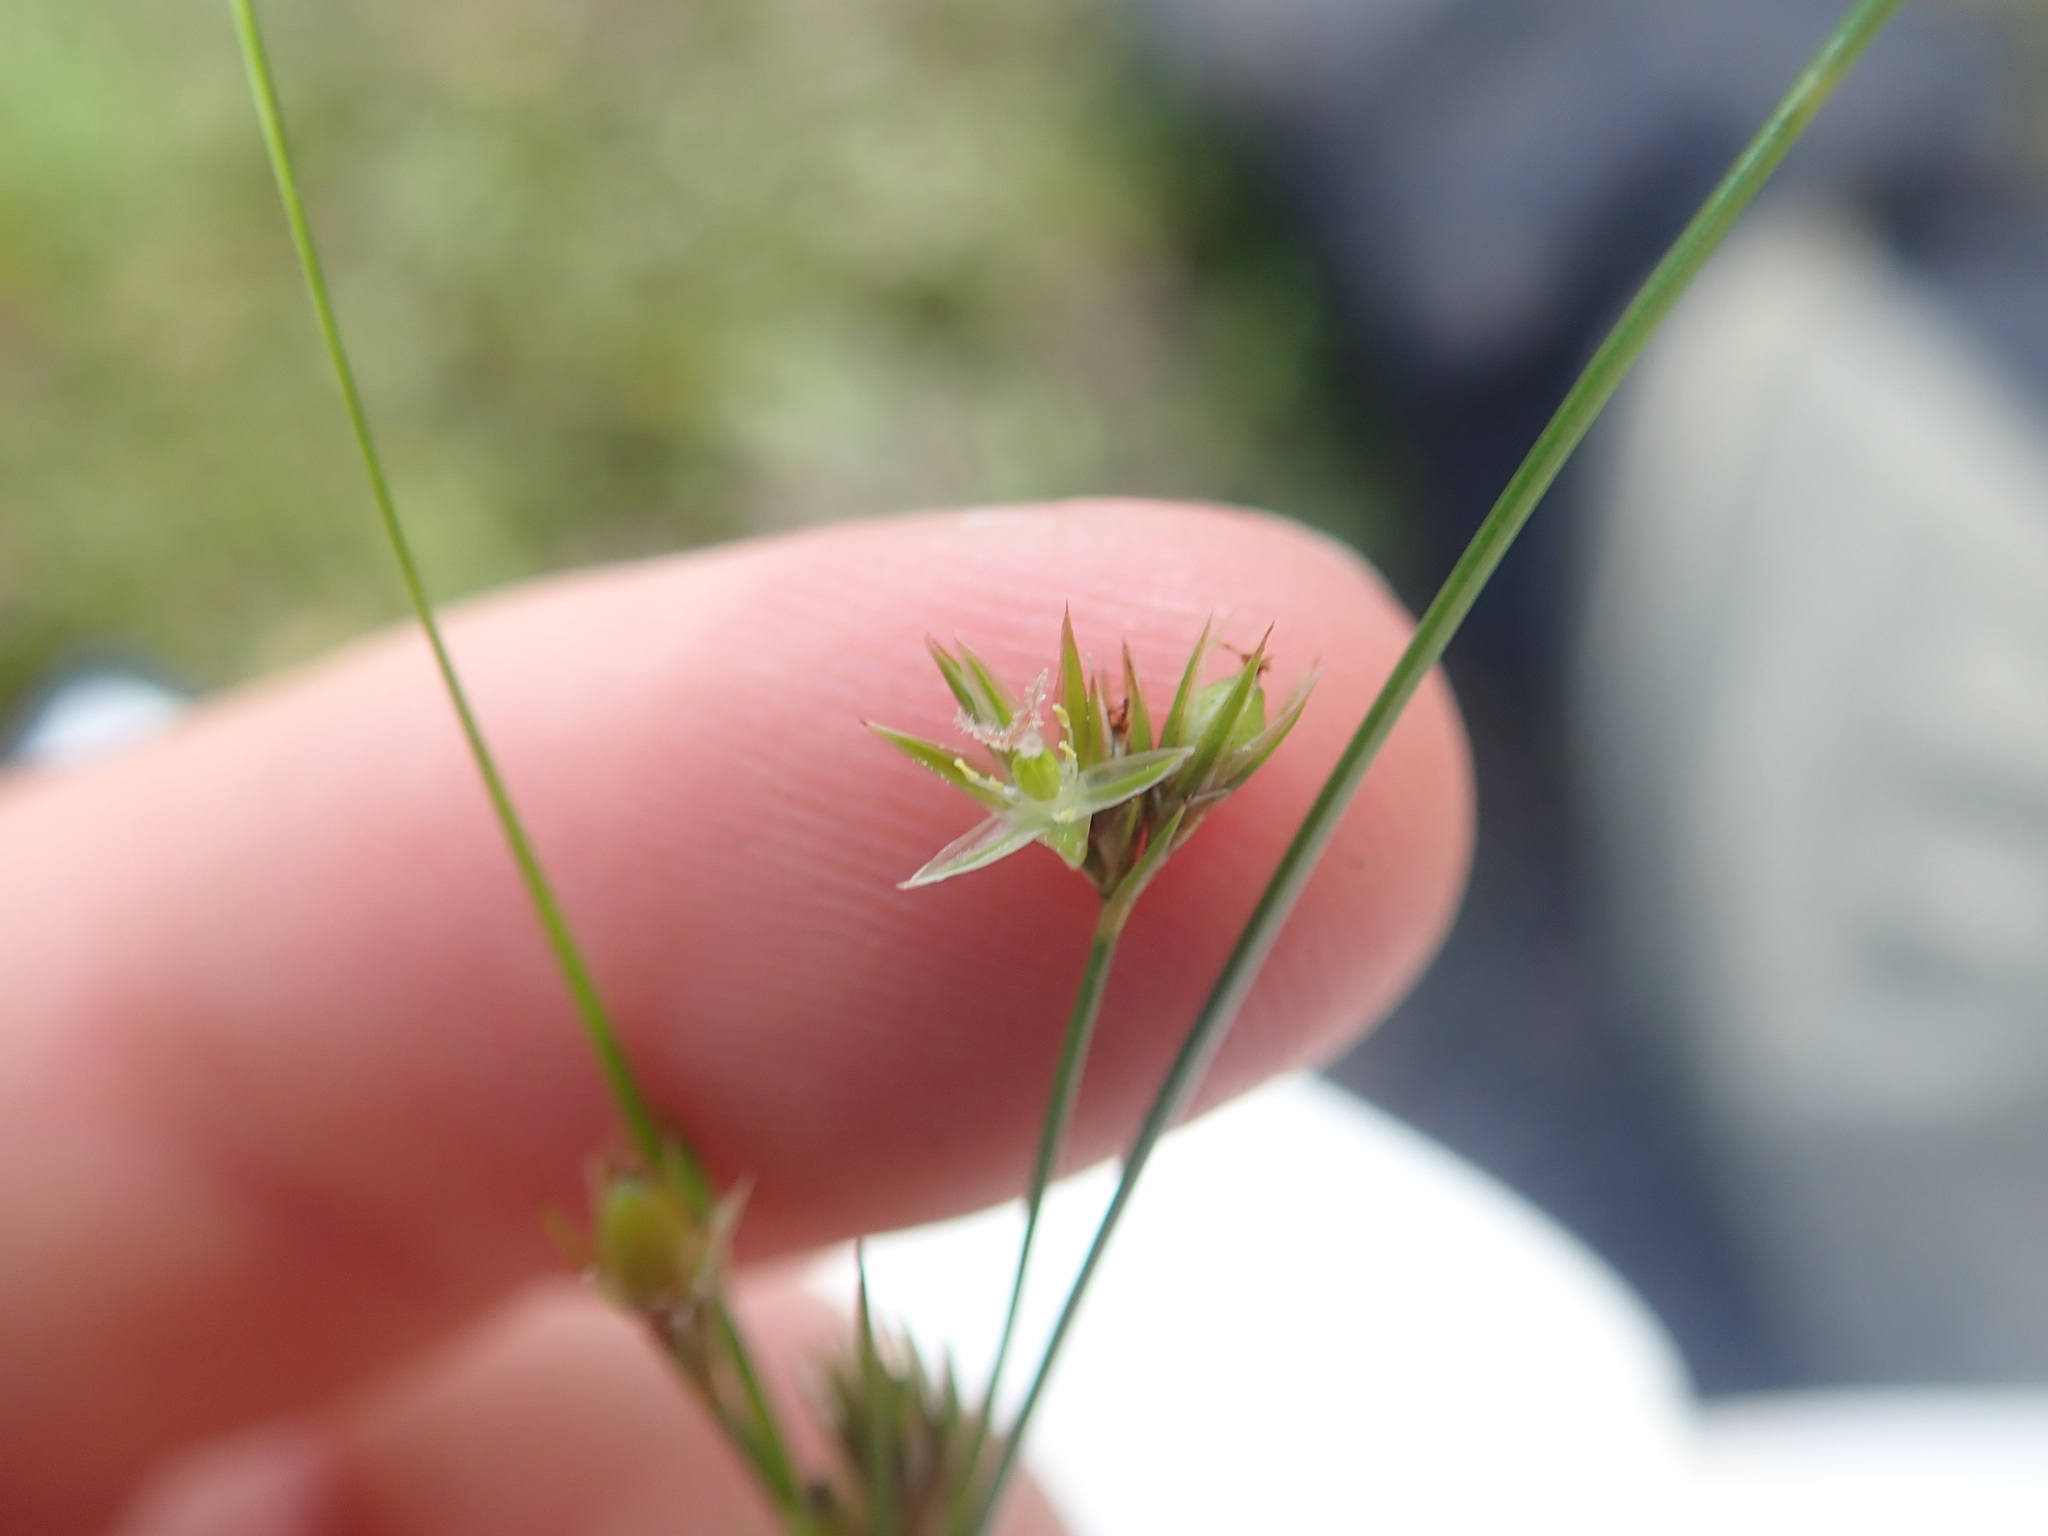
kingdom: Plantae
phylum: Tracheophyta
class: Liliopsida
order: Poales
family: Juncaceae
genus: Juncus
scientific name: Juncus tenuis
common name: Slender rush
